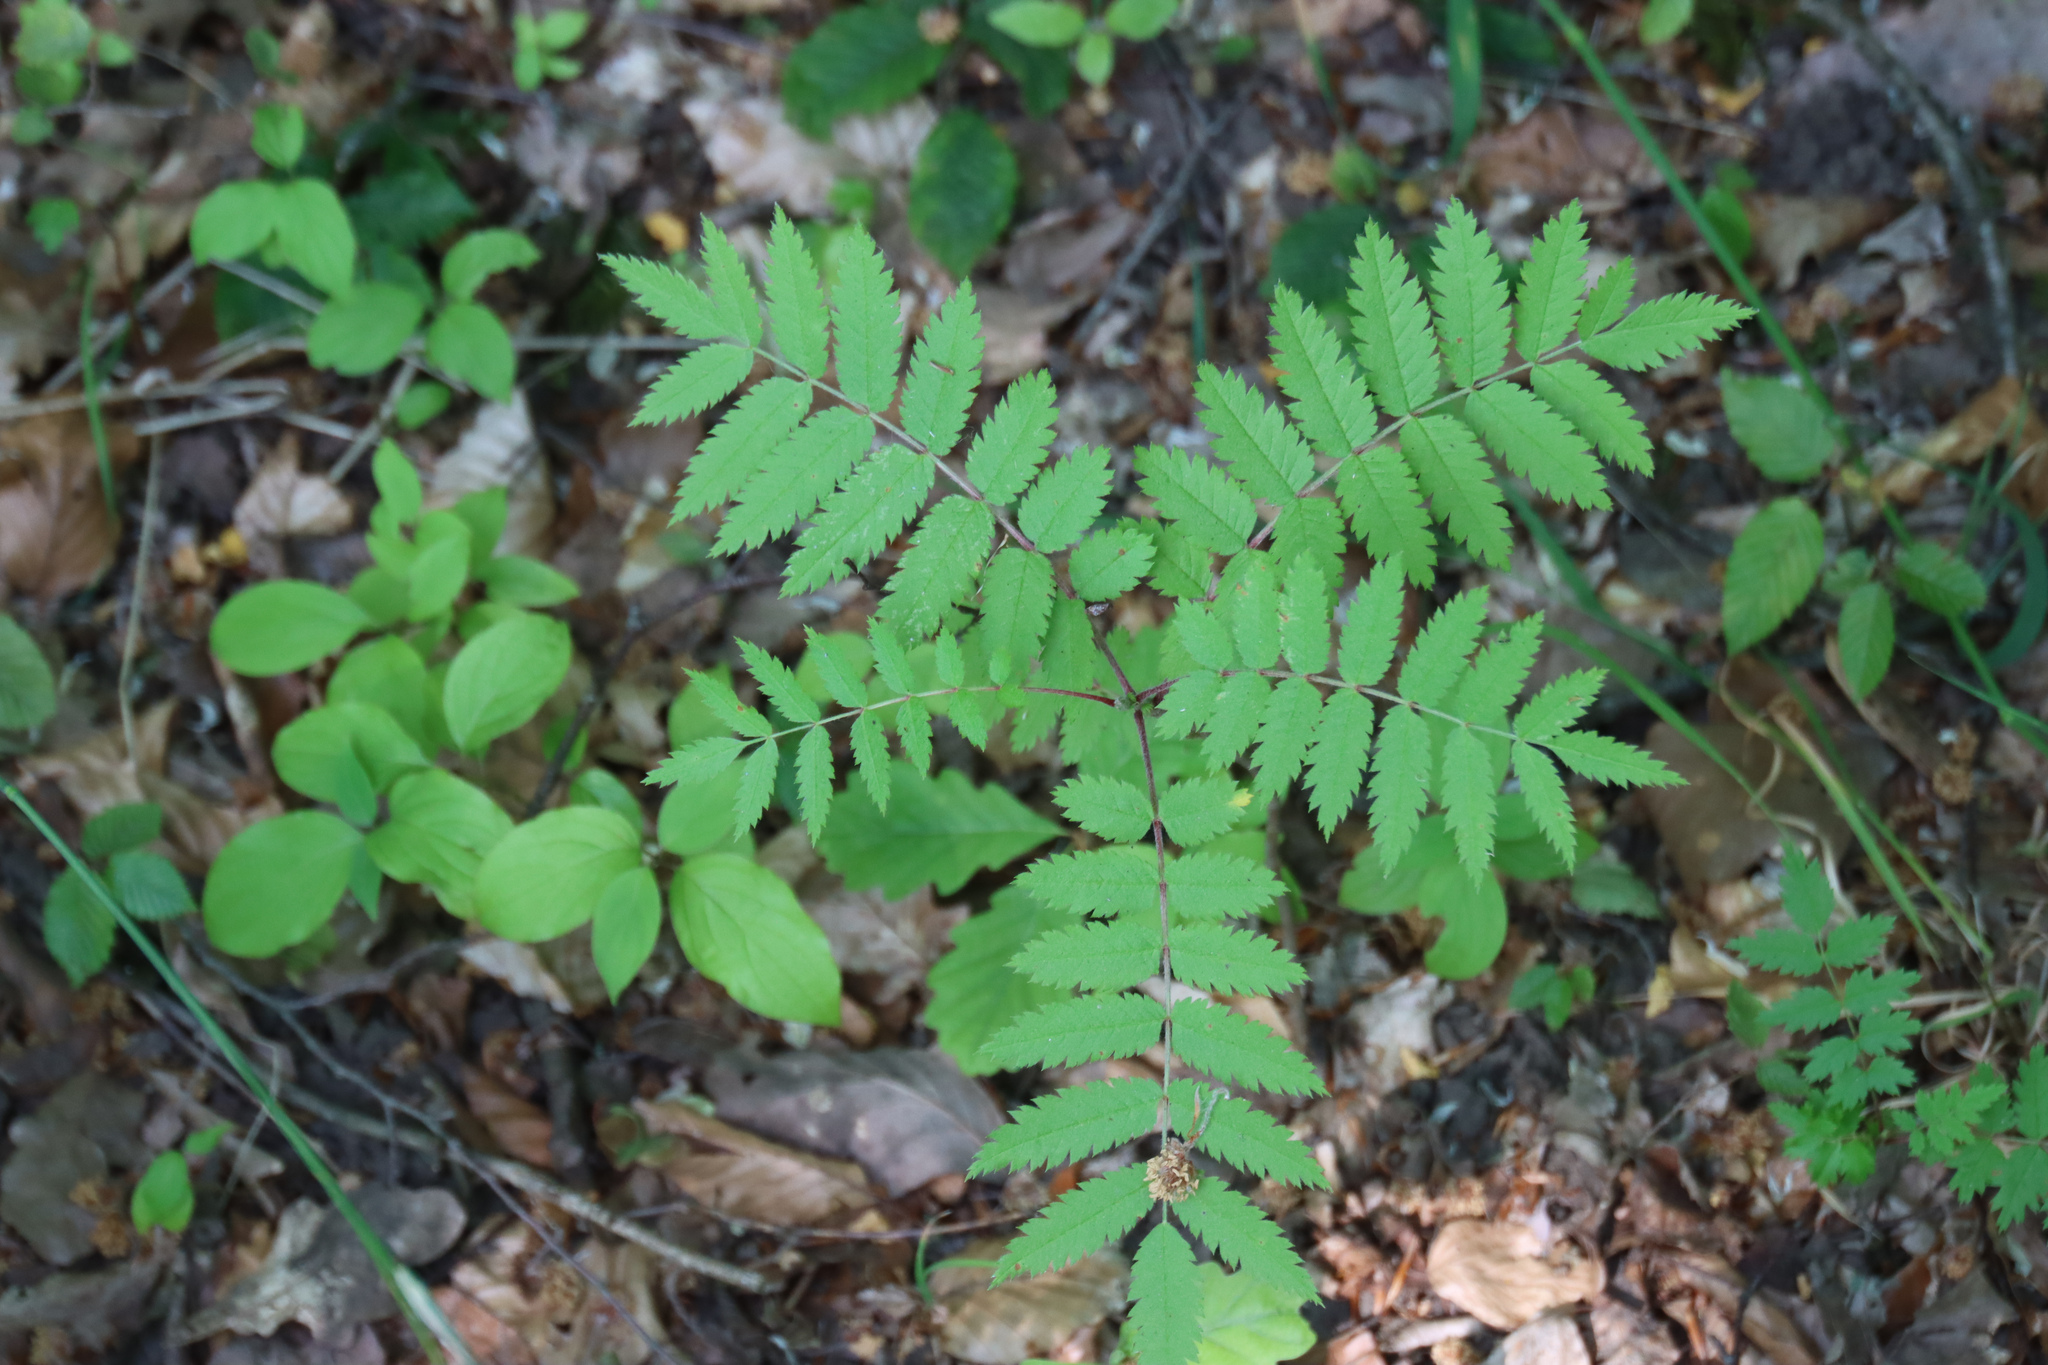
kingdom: Plantae
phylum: Tracheophyta
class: Magnoliopsida
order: Rosales
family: Rosaceae
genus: Sorbus
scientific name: Sorbus aucuparia
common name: Rowan
